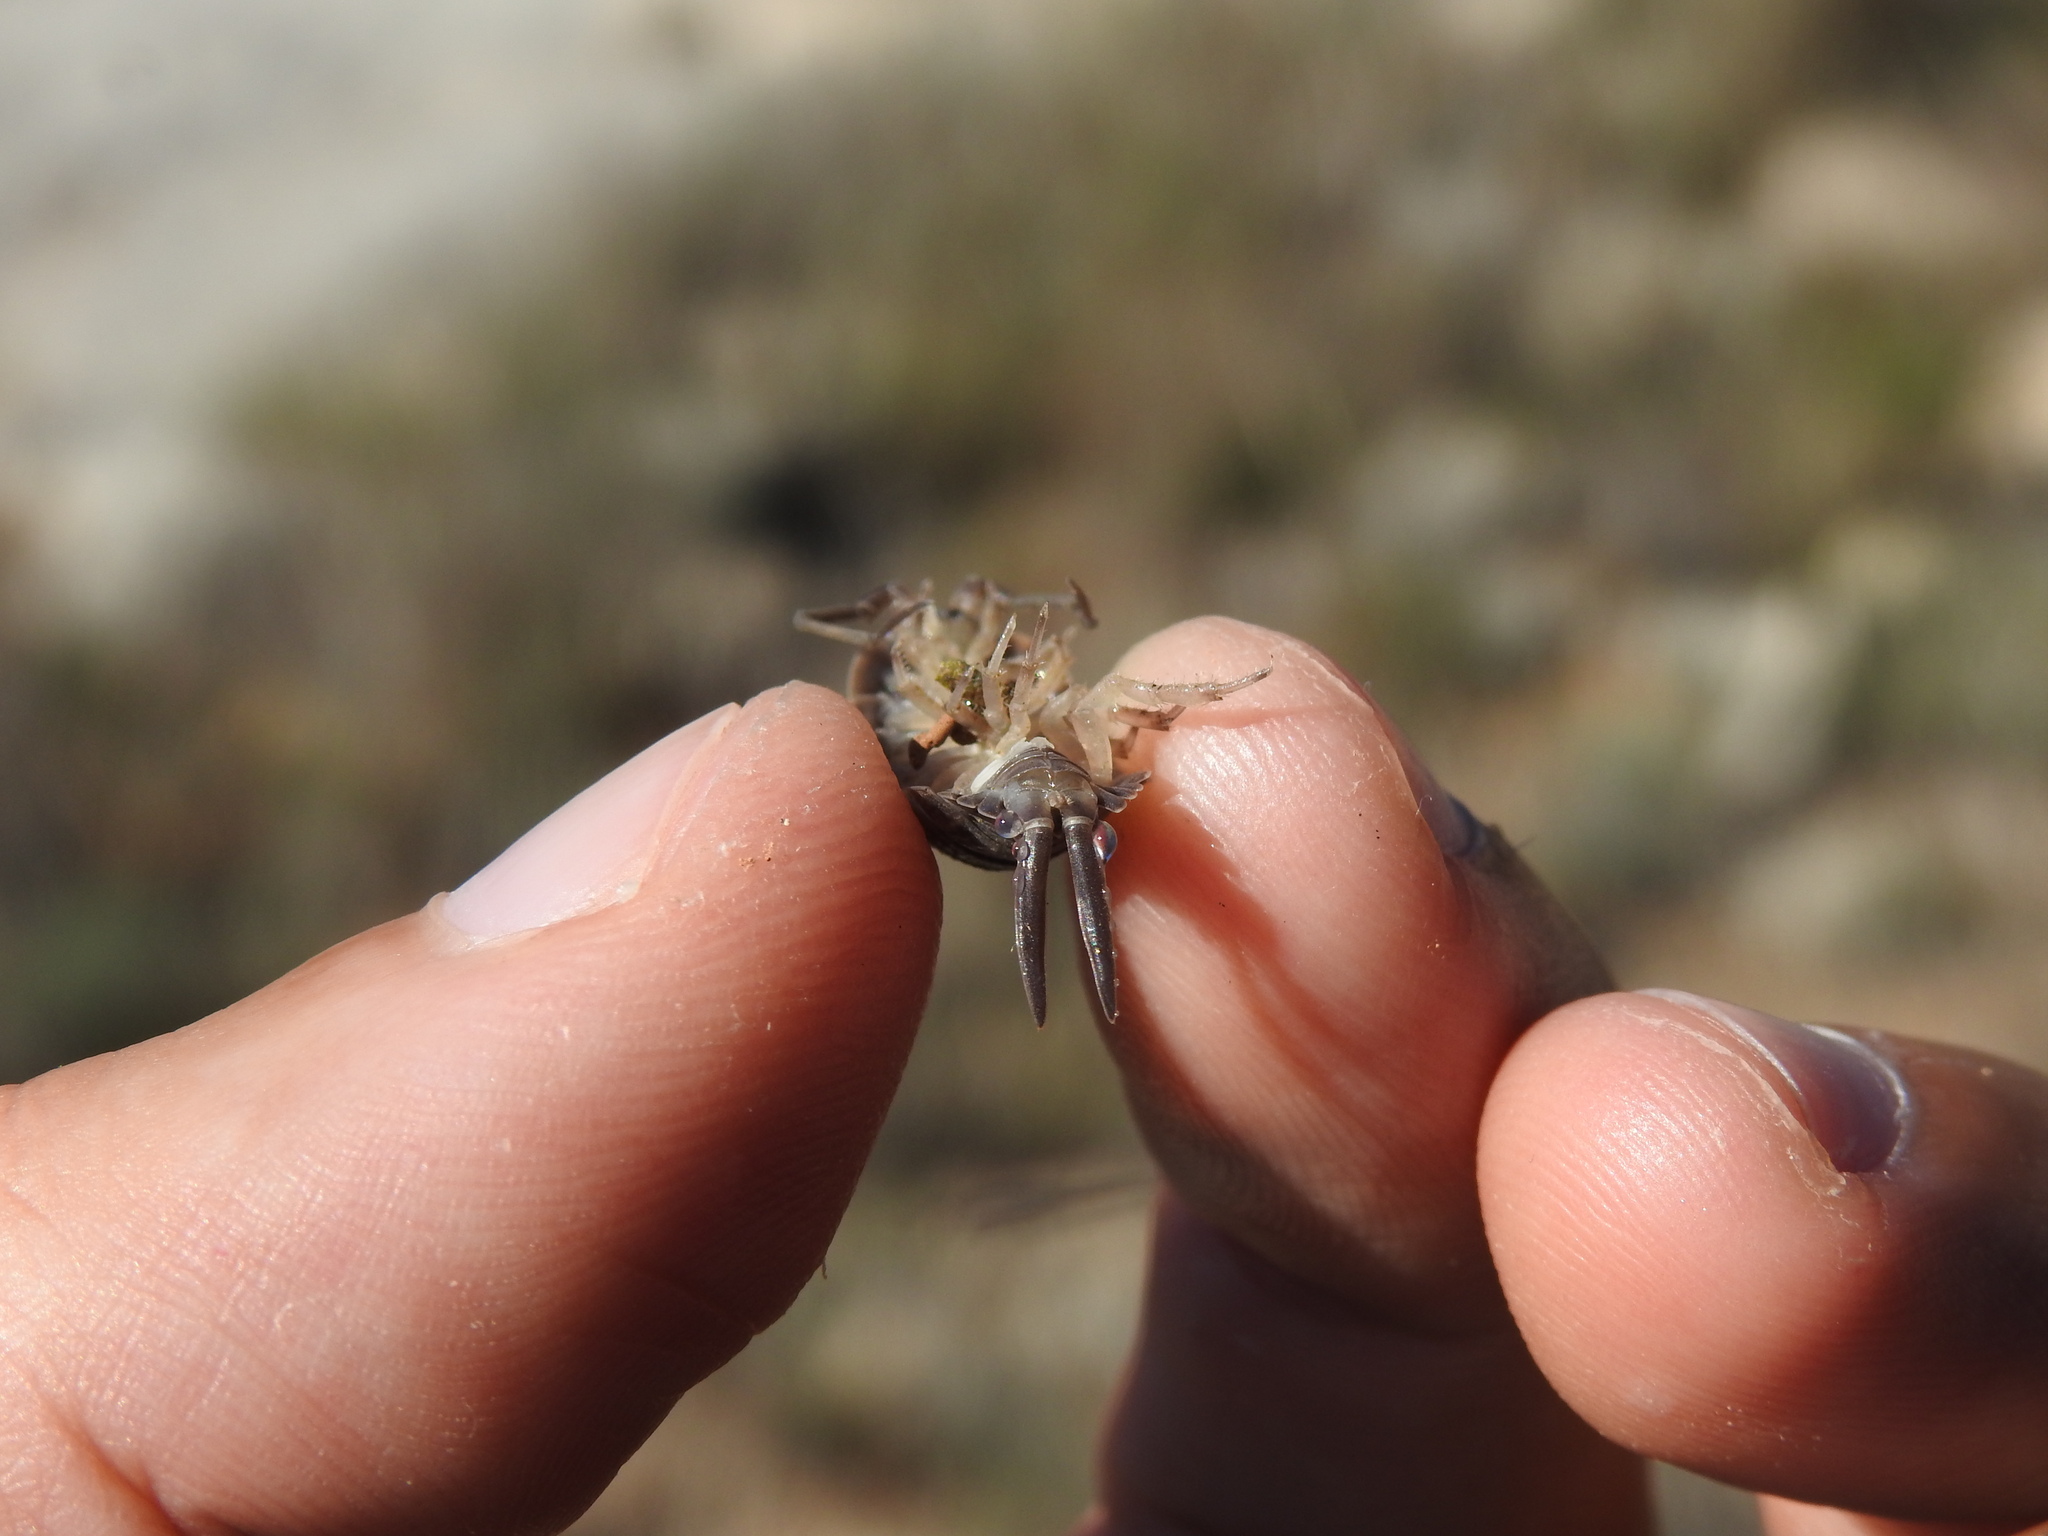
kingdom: Animalia
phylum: Arthropoda
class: Malacostraca
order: Isopoda
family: Porcellionidae
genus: Porcellio
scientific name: Porcellio hoffmannseggii
